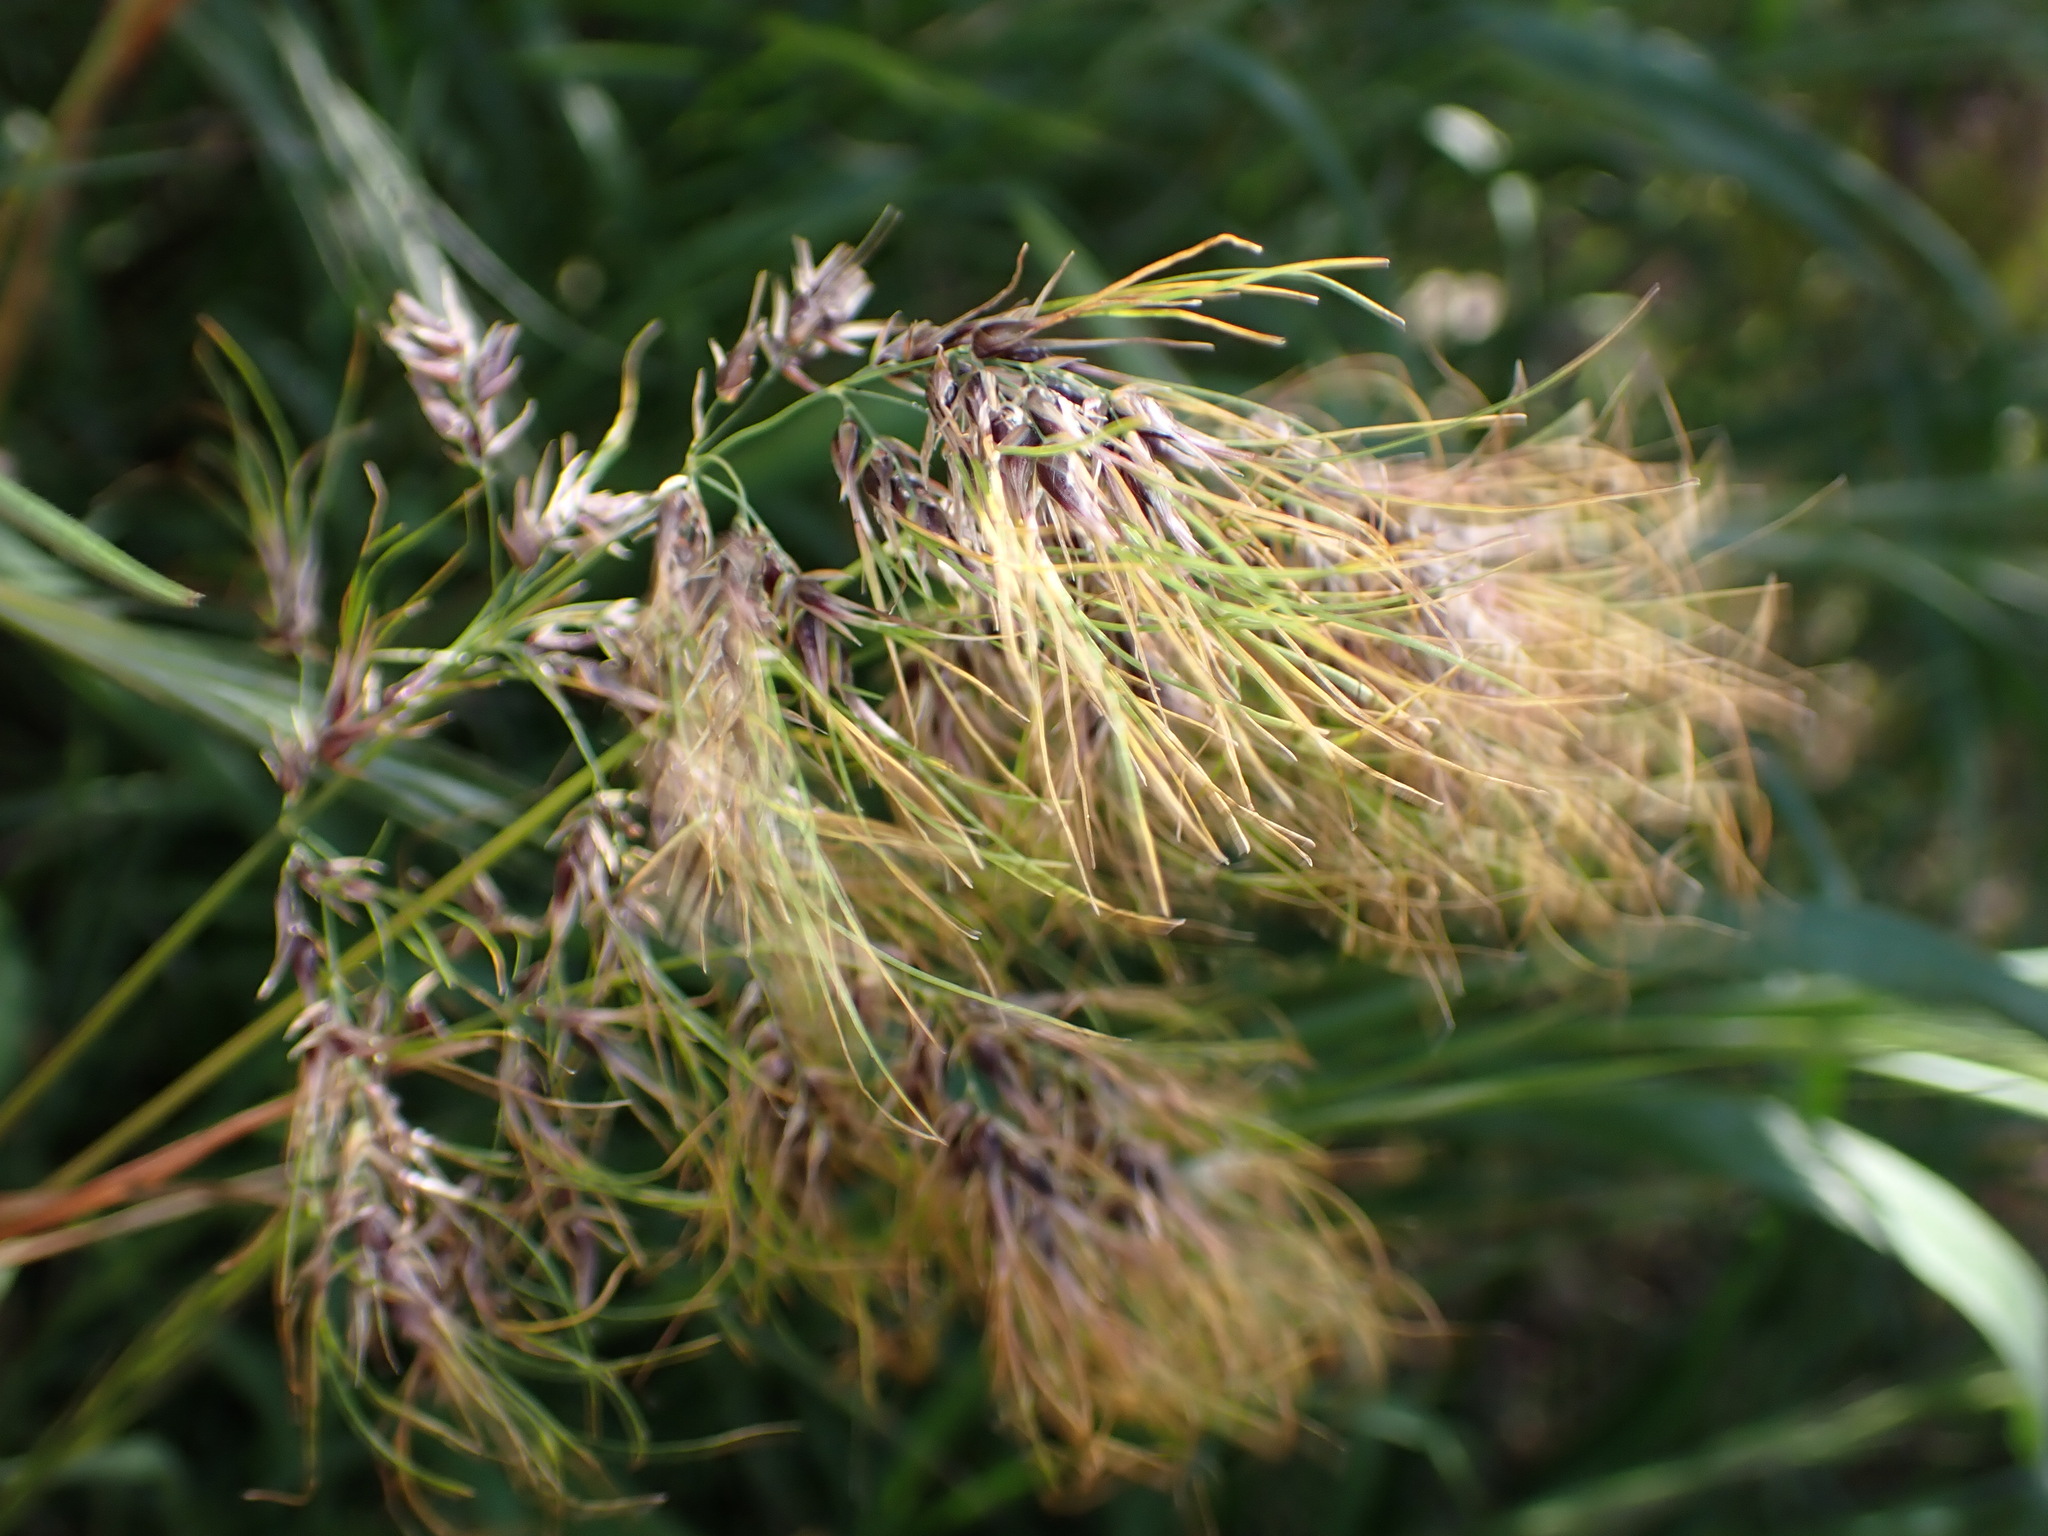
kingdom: Plantae
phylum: Tracheophyta
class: Liliopsida
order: Poales
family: Poaceae
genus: Poa
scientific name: Poa bulbosa
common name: Bulbous bluegrass
